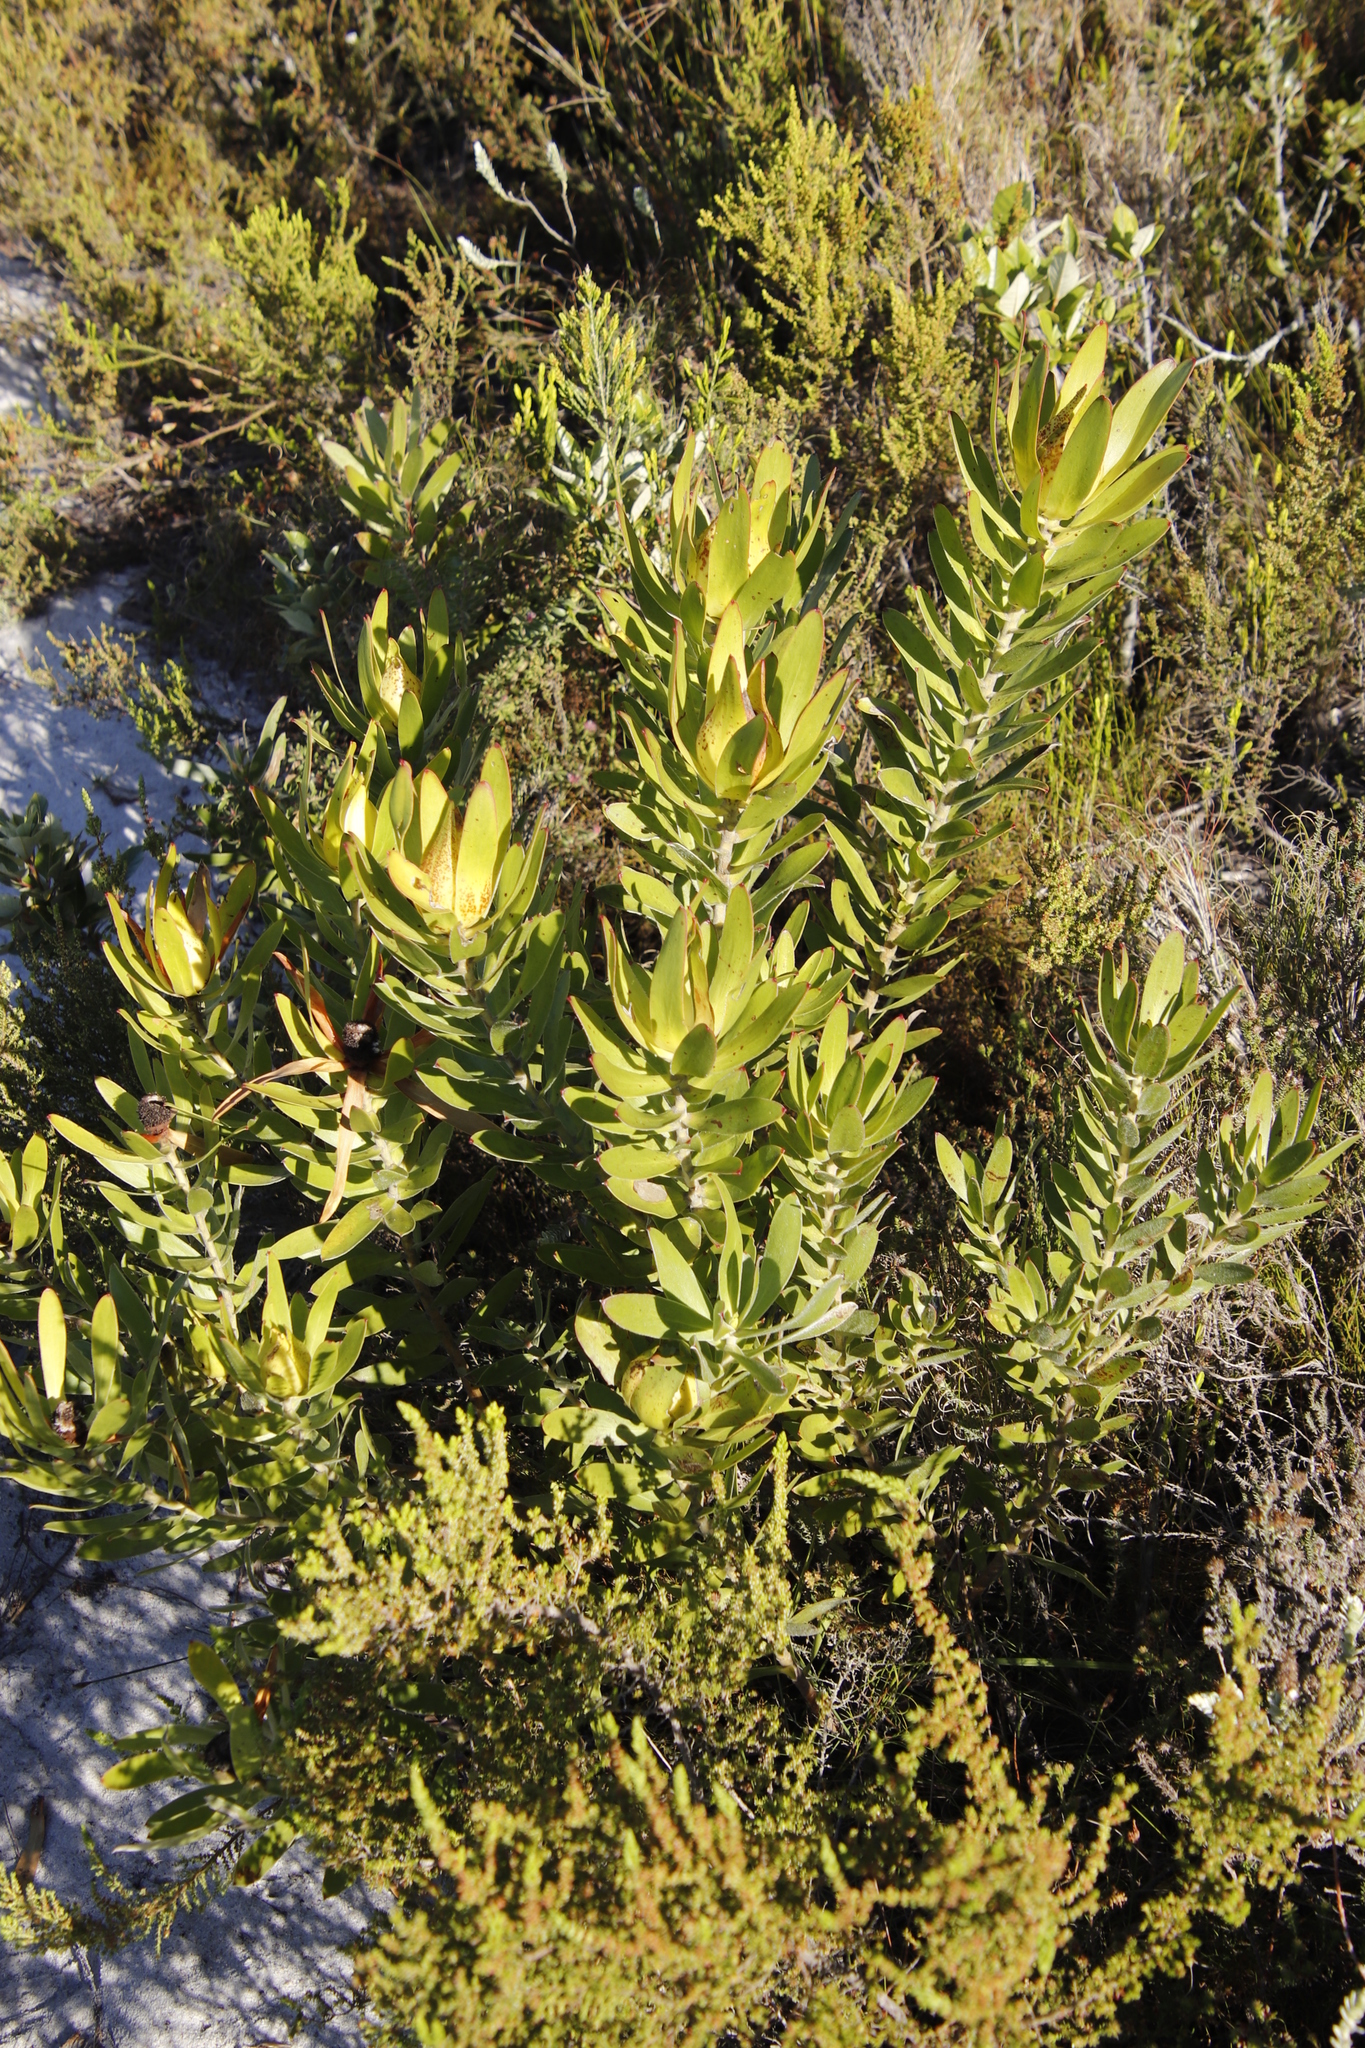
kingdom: Plantae
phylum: Tracheophyta
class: Magnoliopsida
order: Proteales
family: Proteaceae
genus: Leucadendron
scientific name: Leucadendron laureolum
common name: Golden sunshinebush
